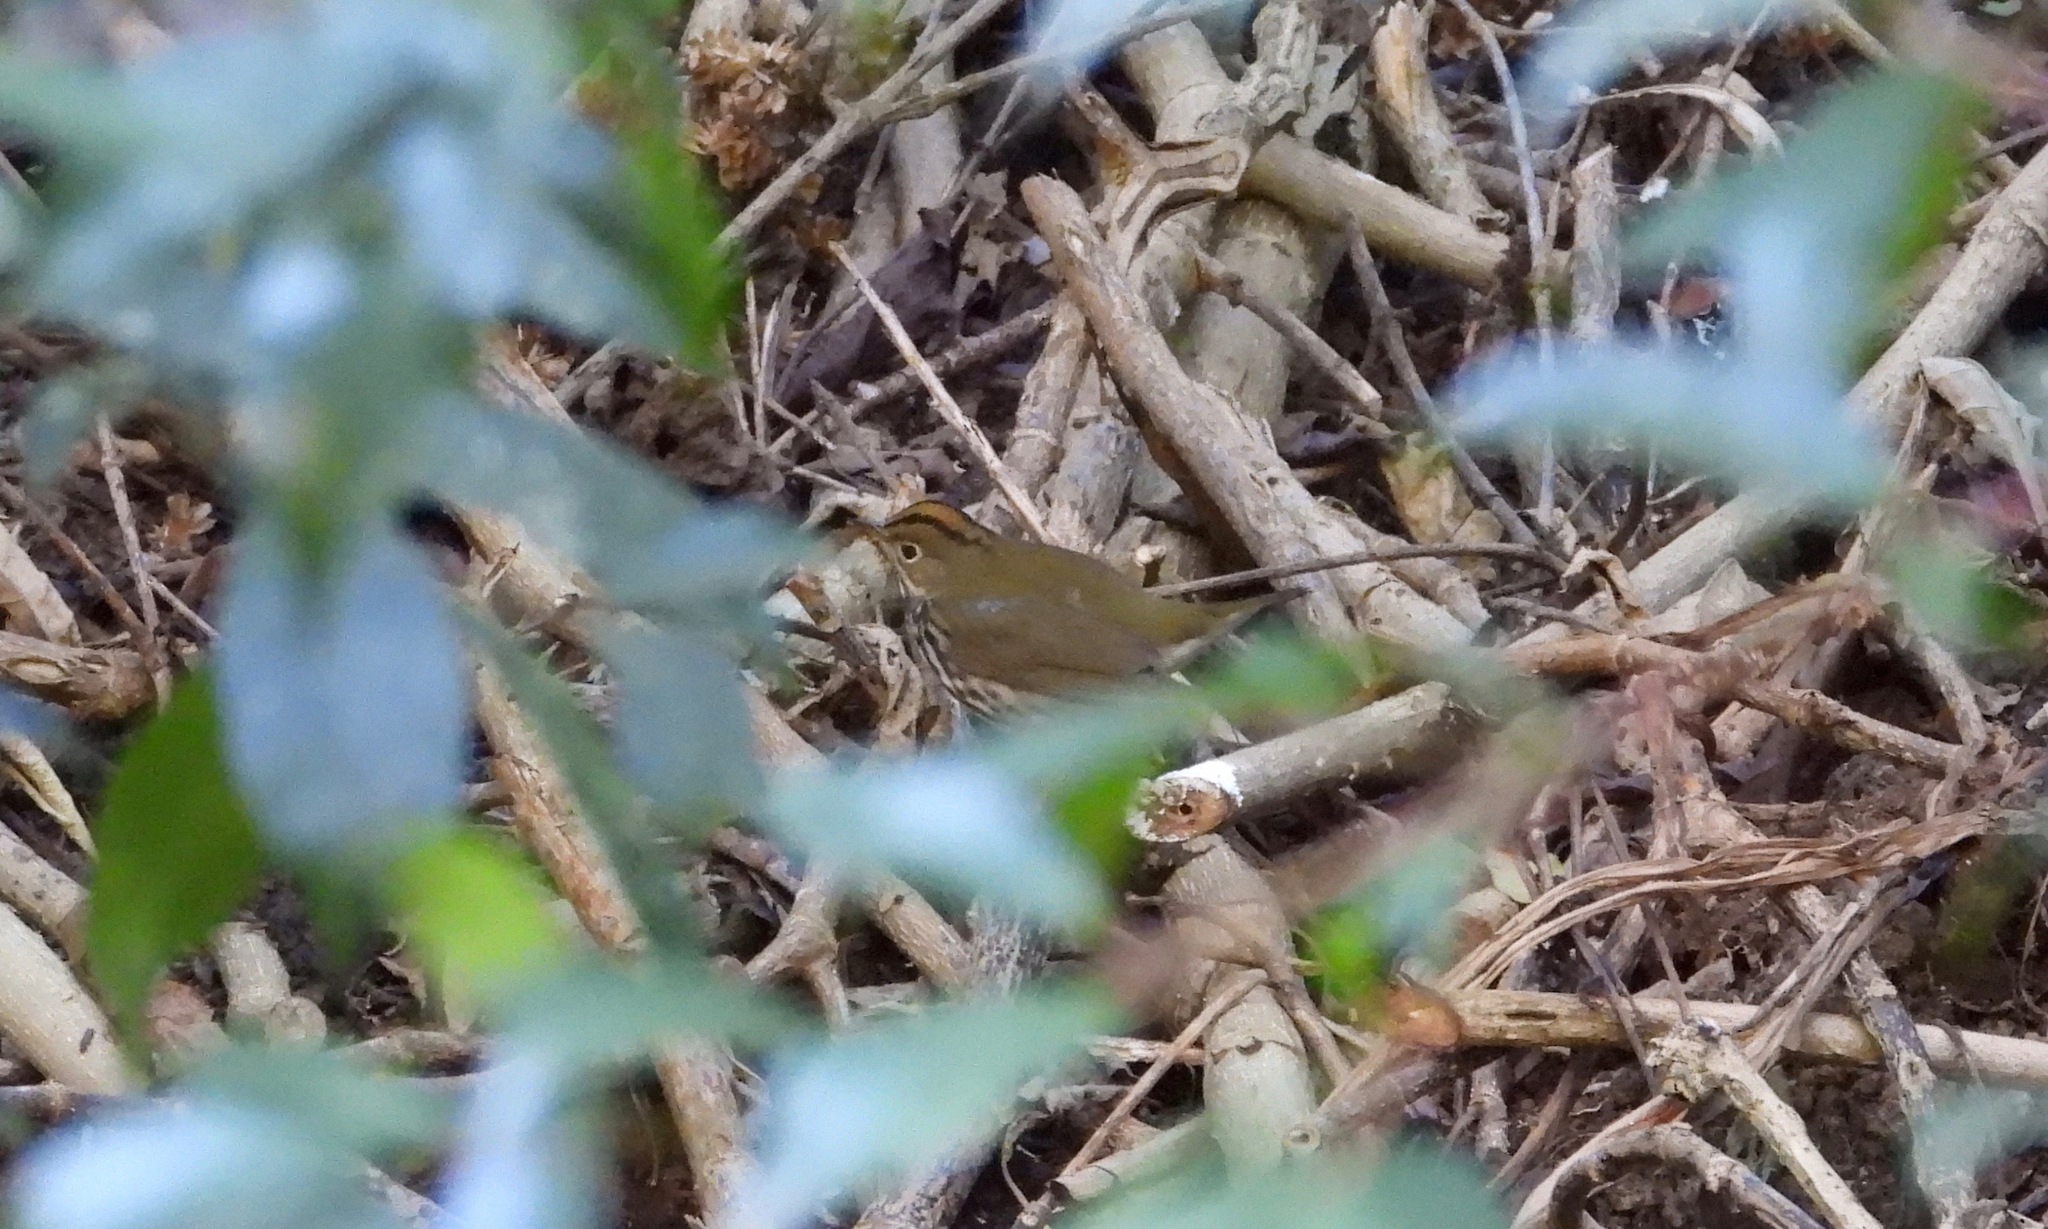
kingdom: Animalia
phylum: Chordata
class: Aves
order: Passeriformes
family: Parulidae
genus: Seiurus
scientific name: Seiurus aurocapilla
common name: Ovenbird
